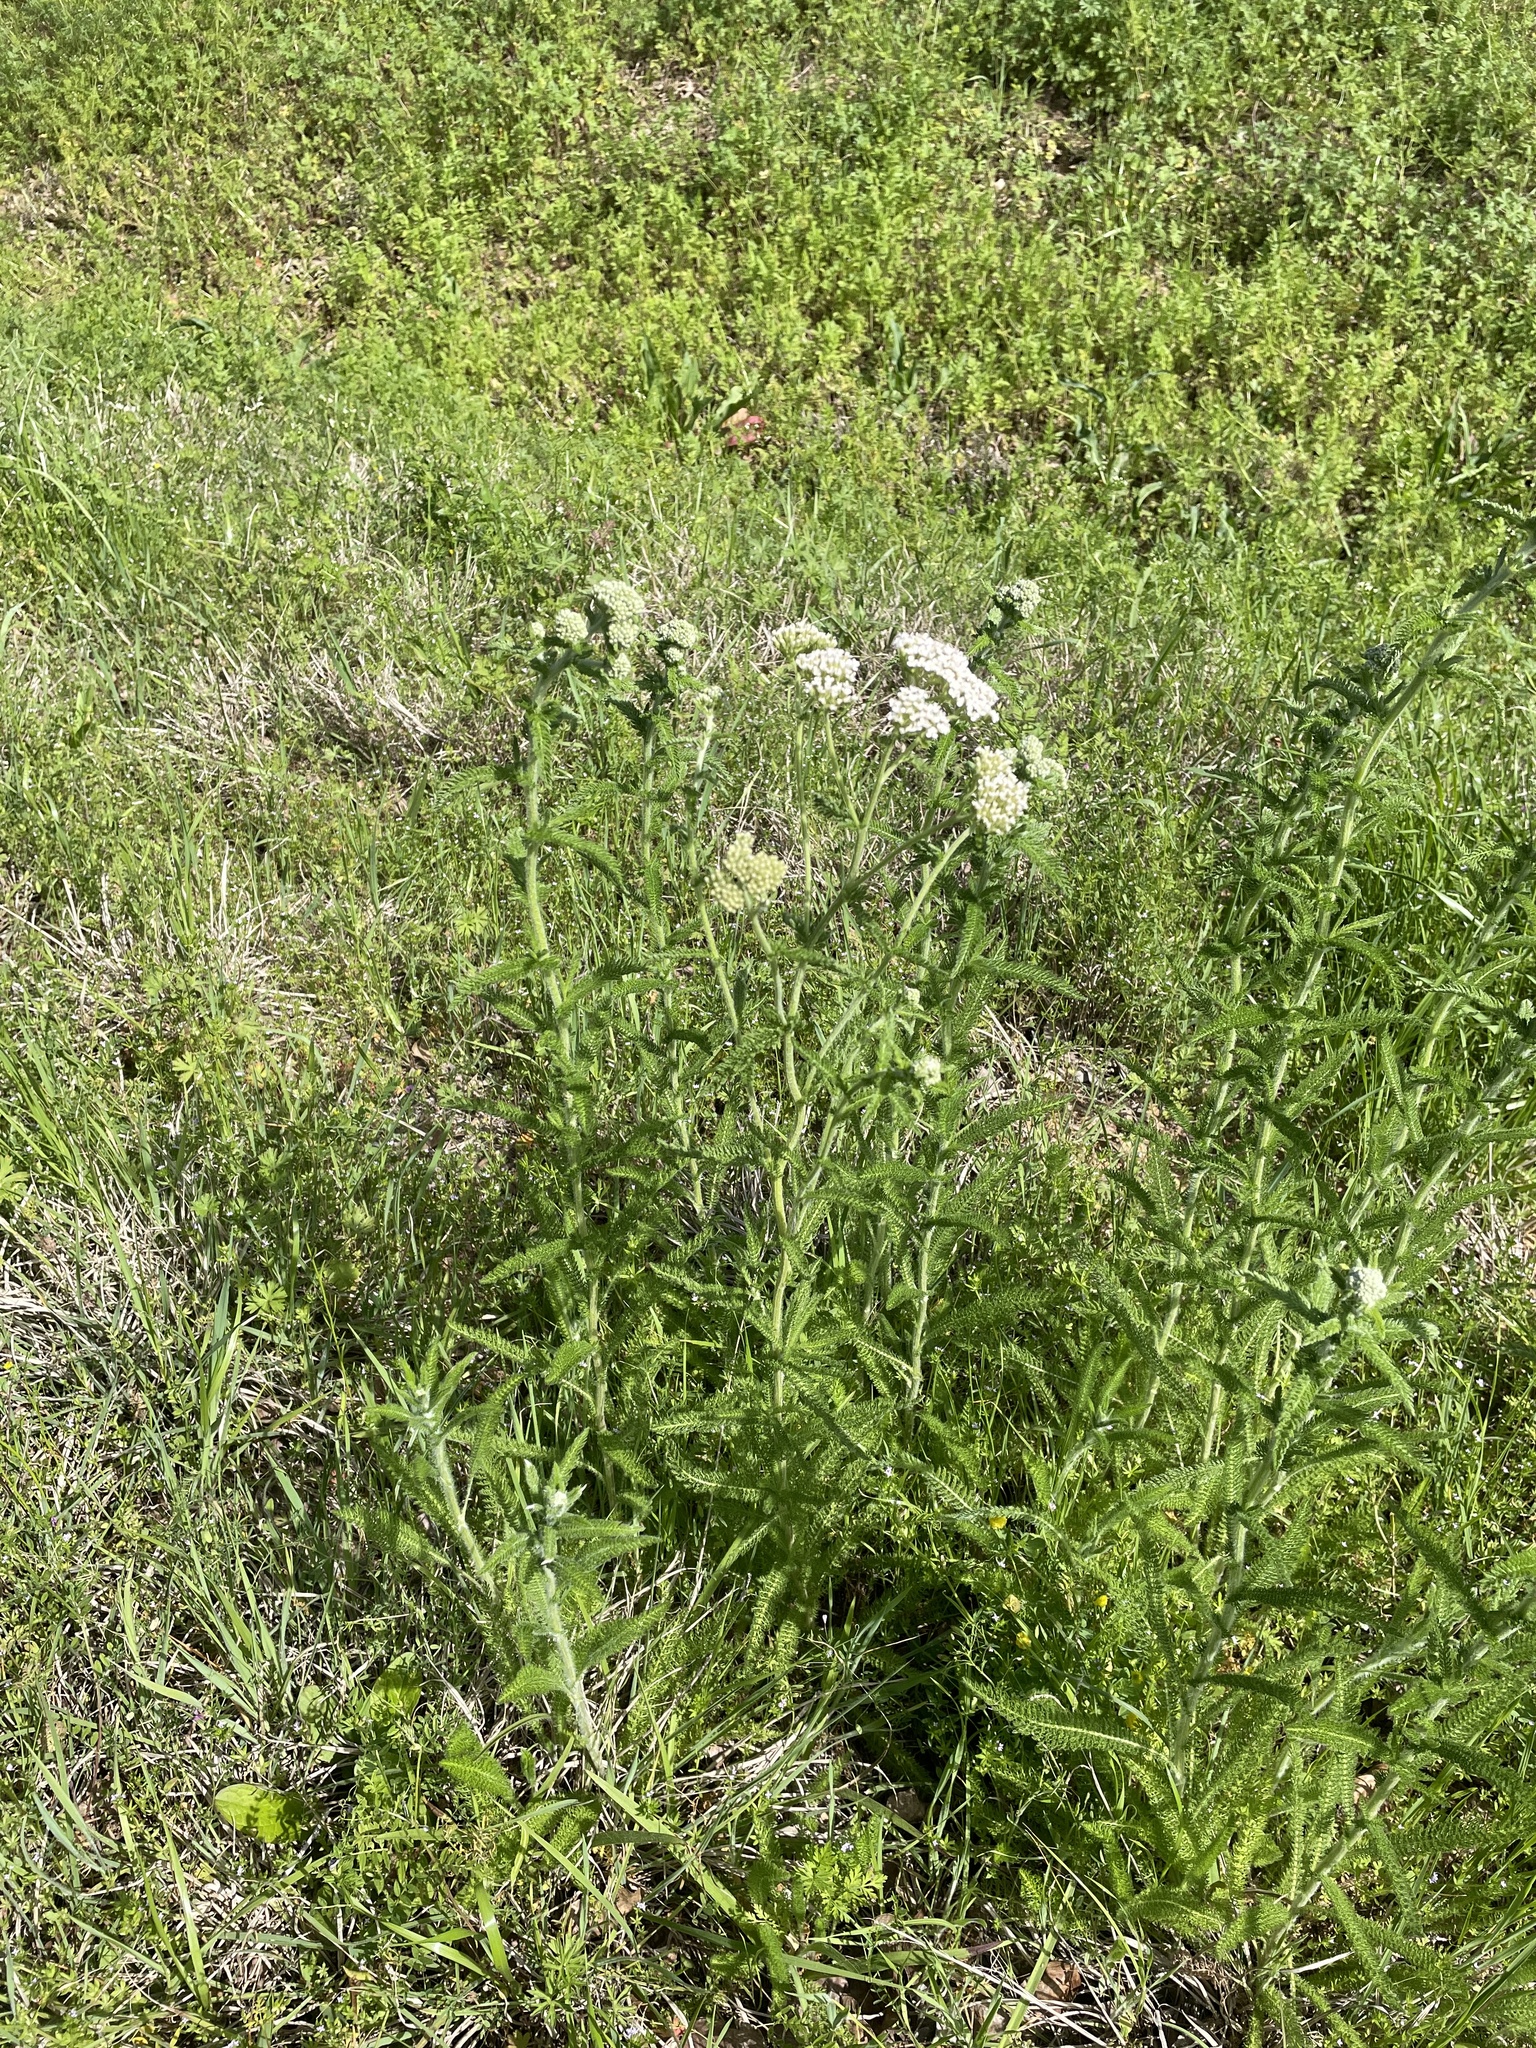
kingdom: Plantae
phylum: Tracheophyta
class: Magnoliopsida
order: Asterales
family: Asteraceae
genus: Achillea
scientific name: Achillea millefolium
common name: Yarrow
